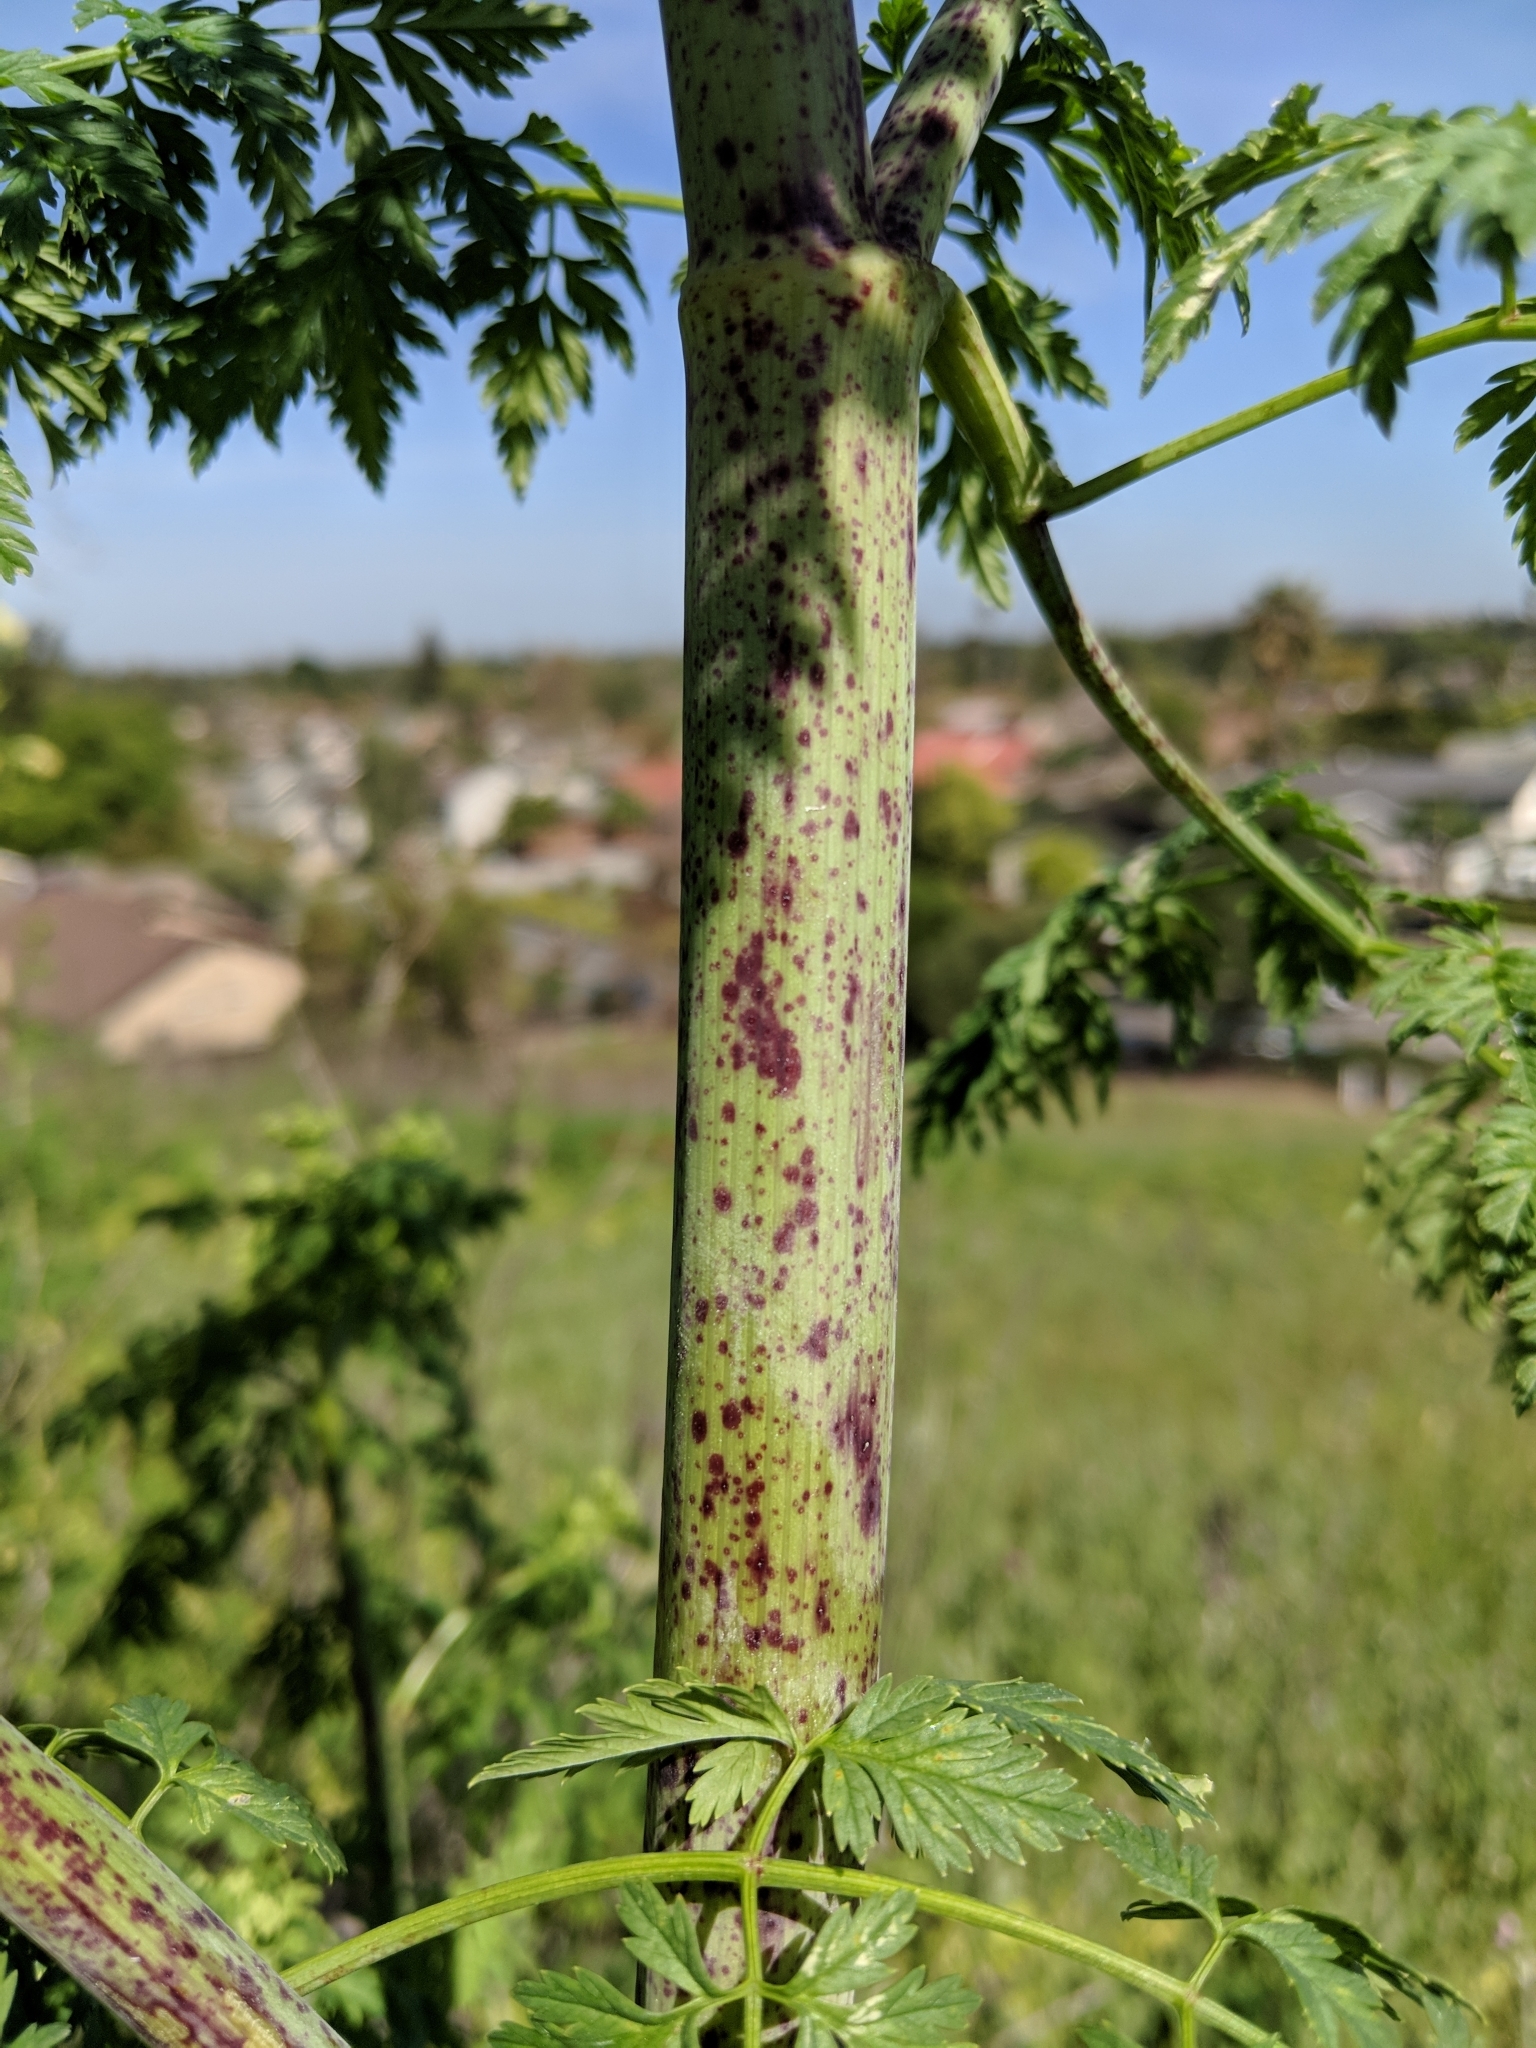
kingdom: Plantae
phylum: Tracheophyta
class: Magnoliopsida
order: Apiales
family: Apiaceae
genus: Conium
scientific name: Conium maculatum
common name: Hemlock
